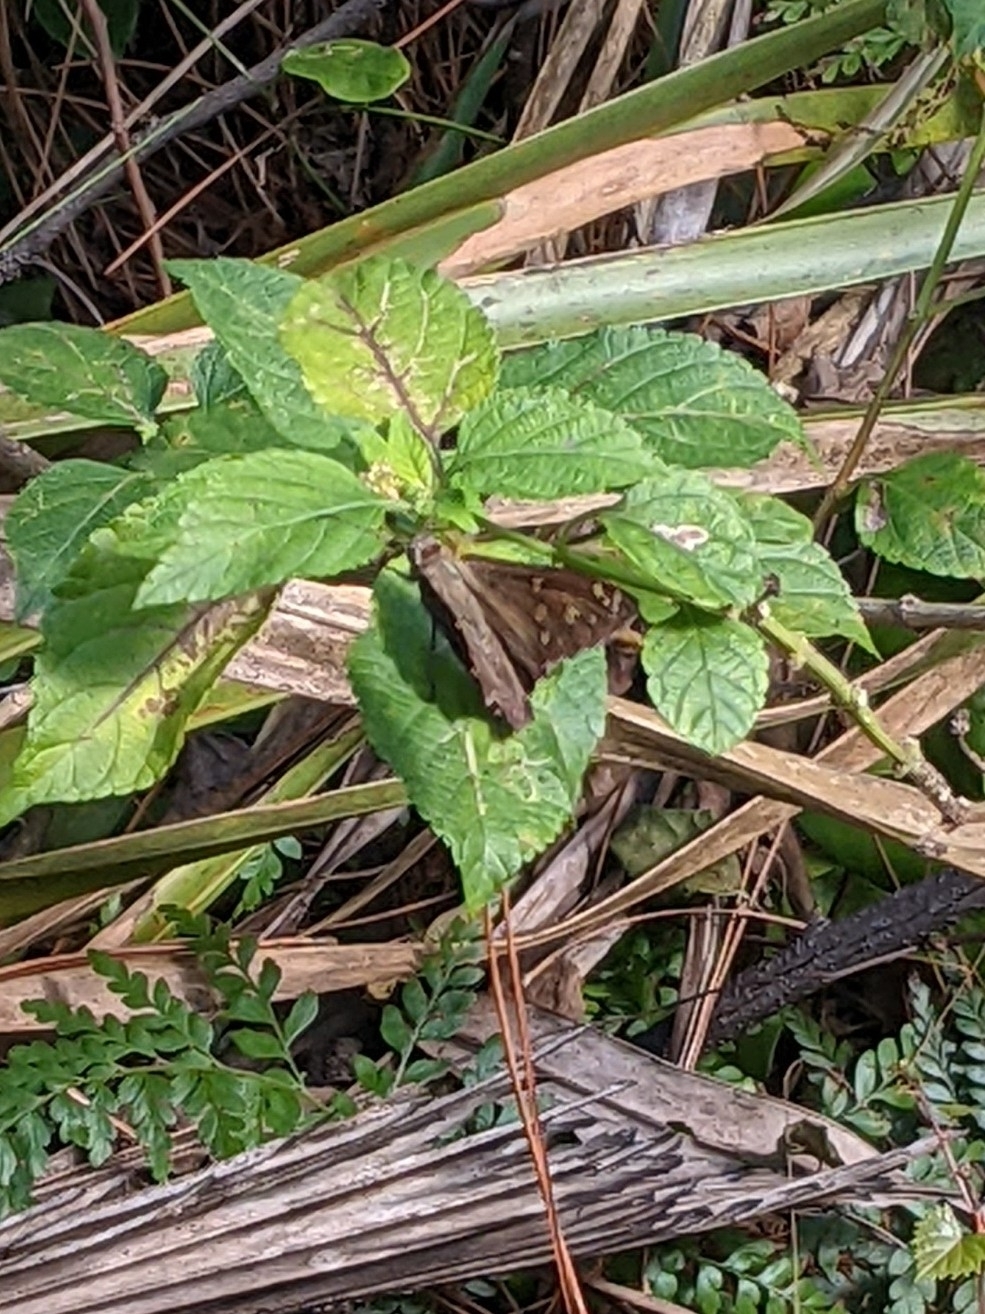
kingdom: Animalia
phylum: Arthropoda
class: Insecta
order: Lepidoptera
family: Hesperiidae
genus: Thorybes
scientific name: Thorybes
